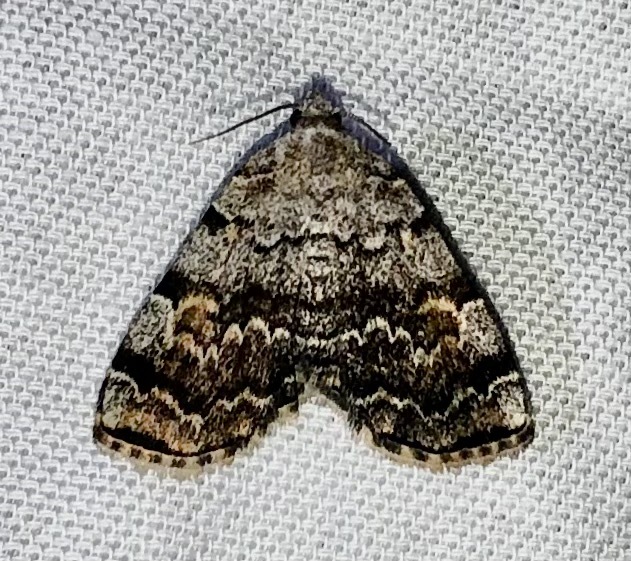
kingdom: Animalia
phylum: Arthropoda
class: Insecta
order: Lepidoptera
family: Erebidae
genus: Idia
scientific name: Idia americalis
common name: American idia moth
